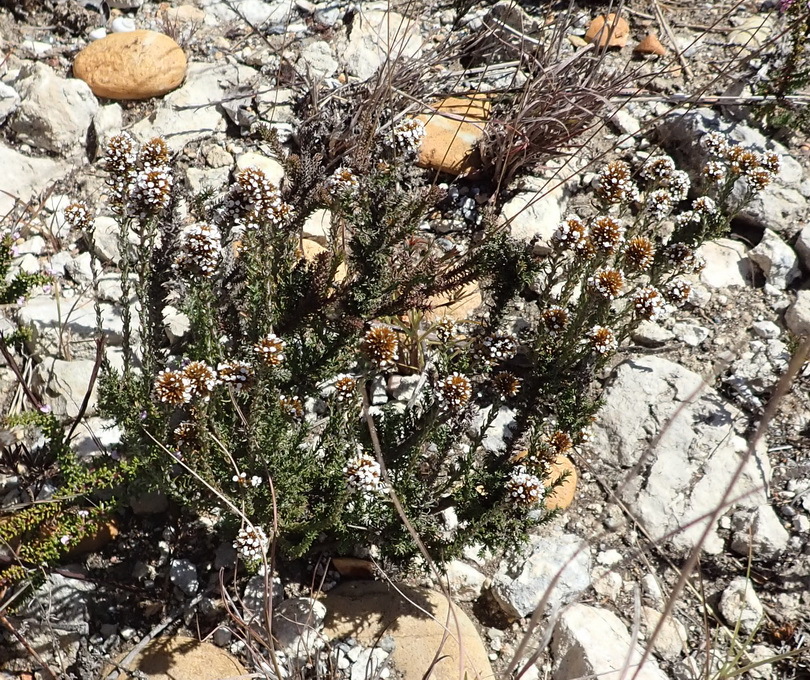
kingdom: Plantae
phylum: Tracheophyta
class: Magnoliopsida
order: Asterales
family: Asteraceae
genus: Disparago
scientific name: Disparago anomala
